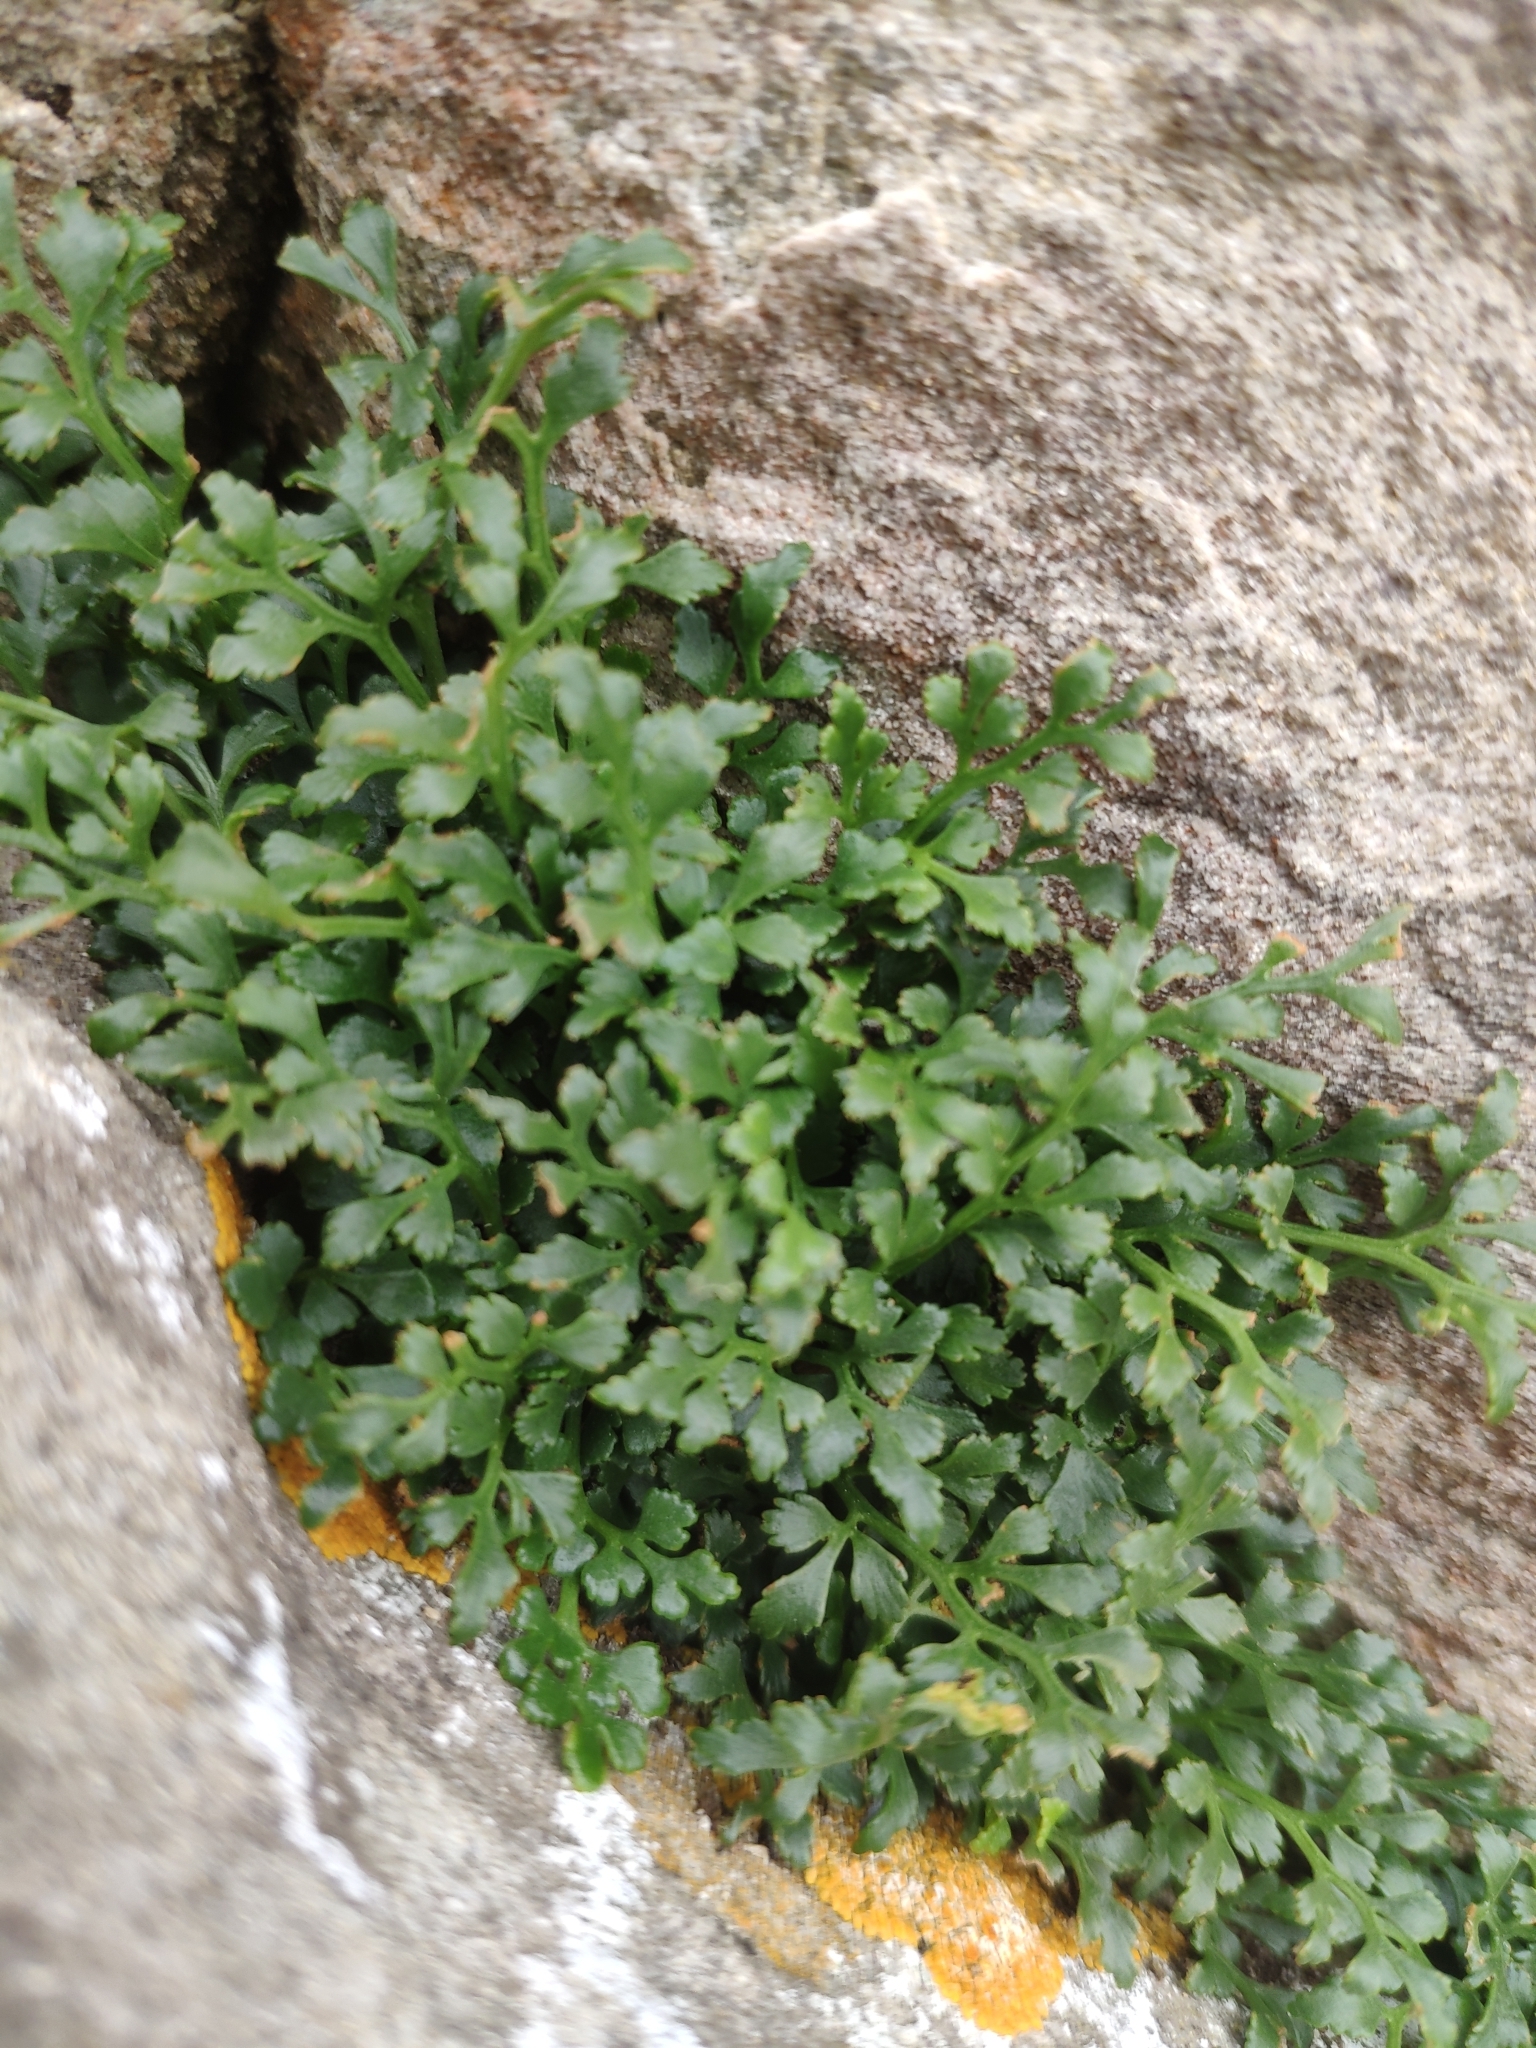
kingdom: Plantae
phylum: Tracheophyta
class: Polypodiopsida
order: Polypodiales
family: Aspleniaceae
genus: Asplenium
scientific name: Asplenium ruta-muraria
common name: Wall-rue
